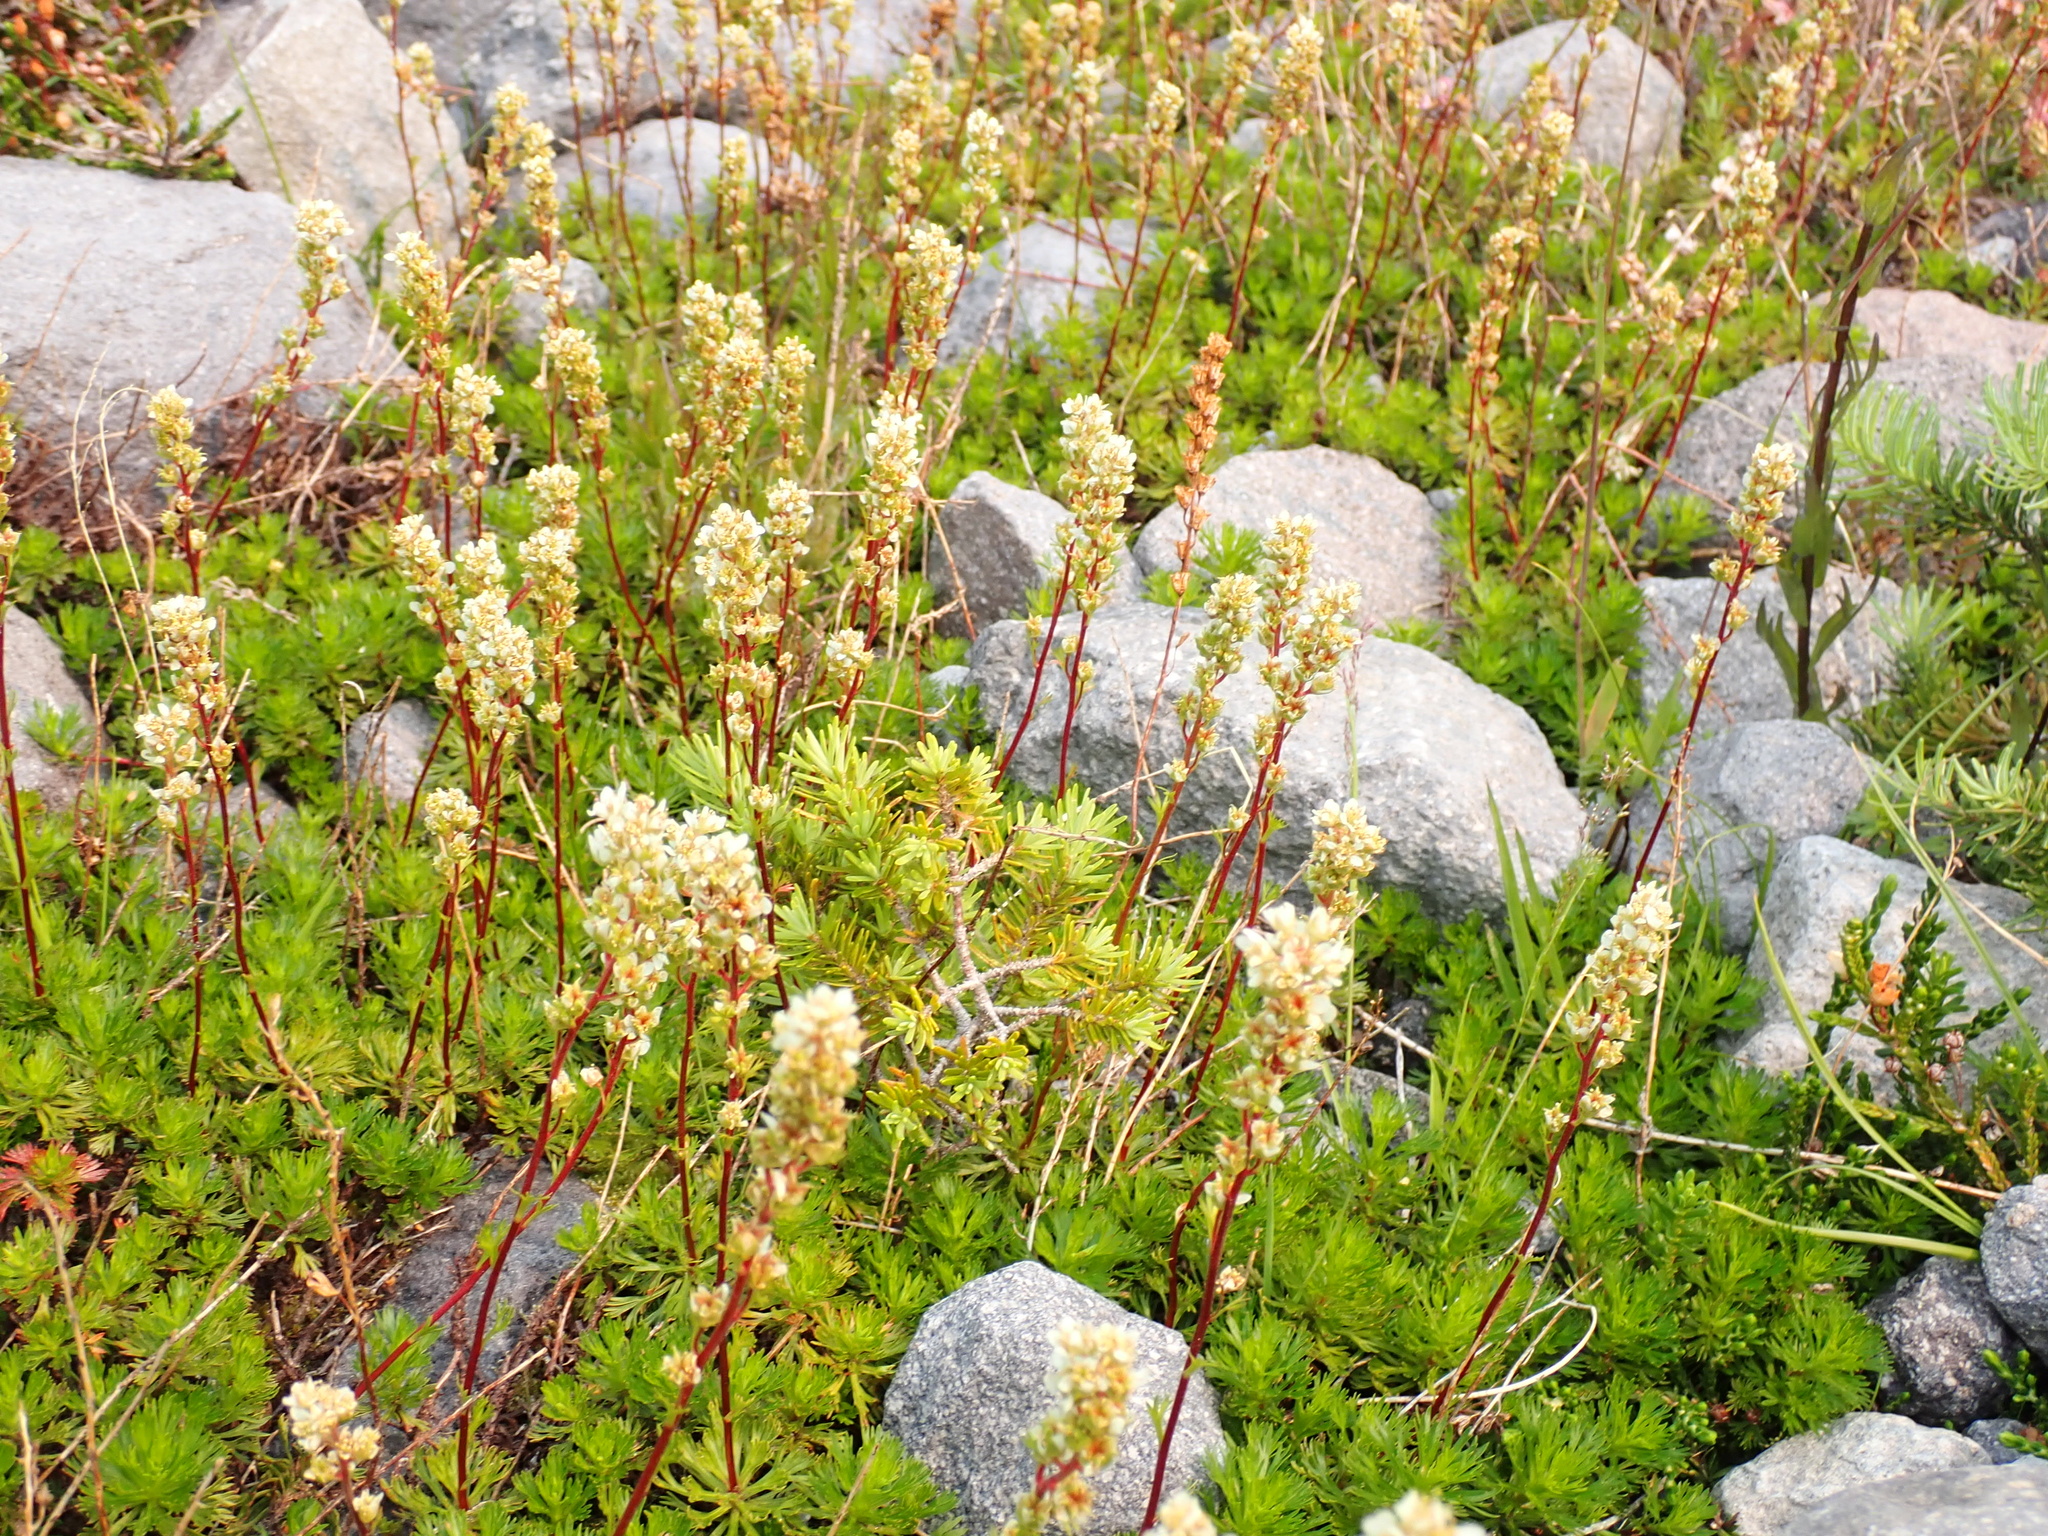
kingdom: Plantae
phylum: Tracheophyta
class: Magnoliopsida
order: Rosales
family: Rosaceae
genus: Luetkea
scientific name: Luetkea pectinata
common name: Partridgefoot
